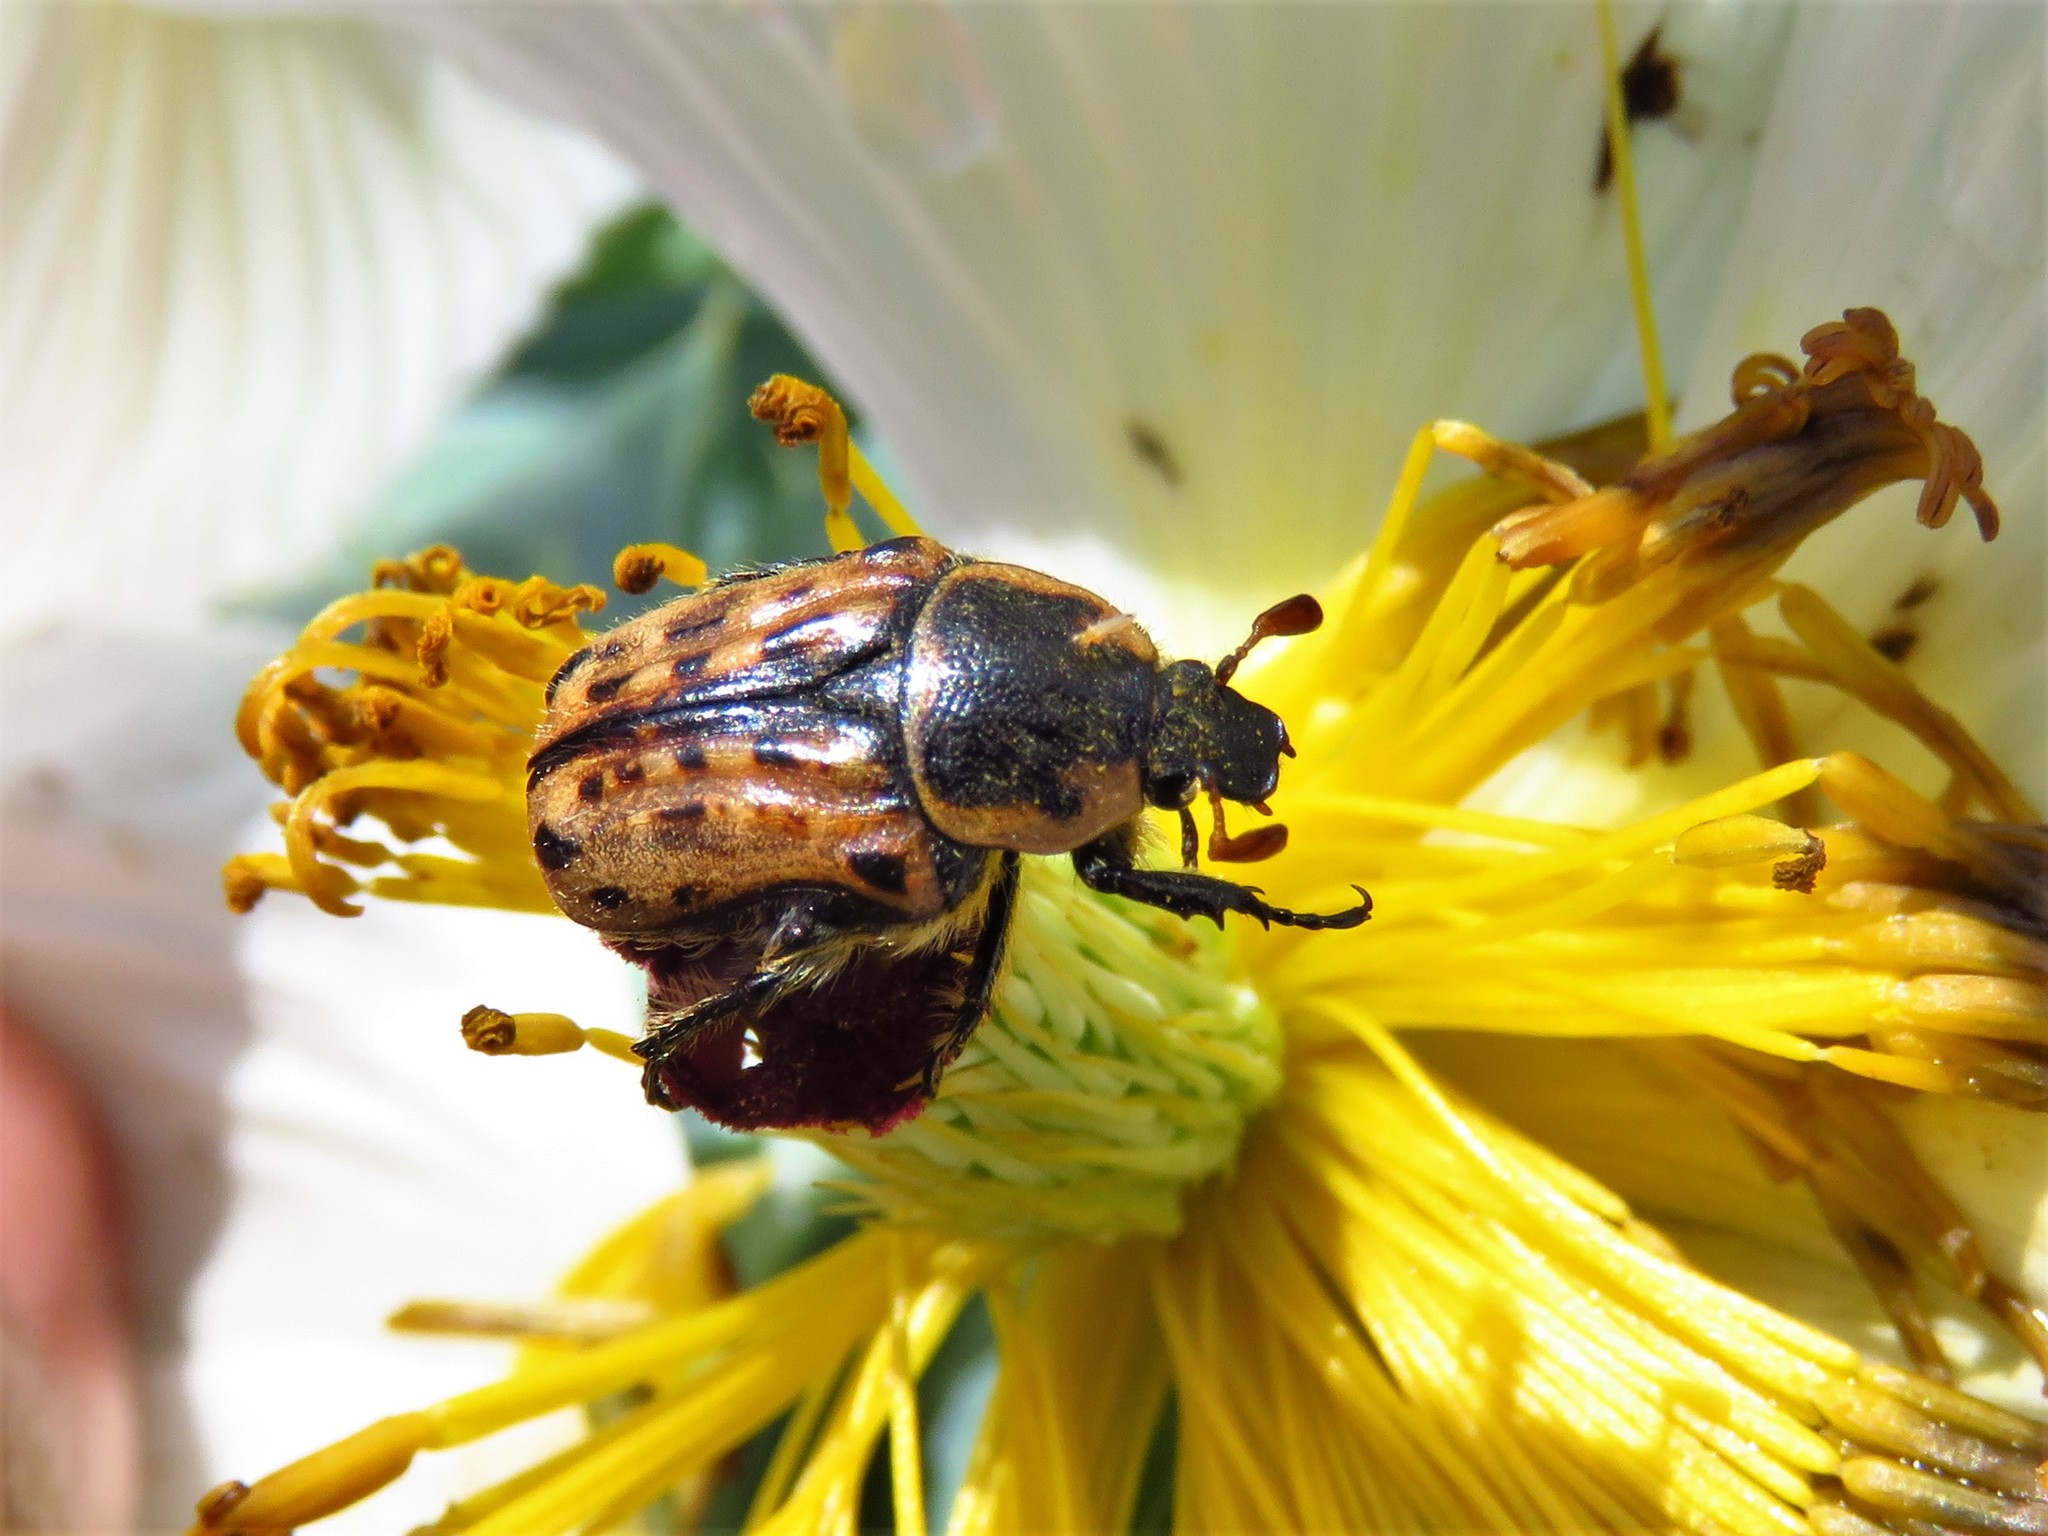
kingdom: Animalia
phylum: Arthropoda
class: Insecta
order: Coleoptera
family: Scarabaeidae
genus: Euphoria
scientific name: Euphoria kernii
